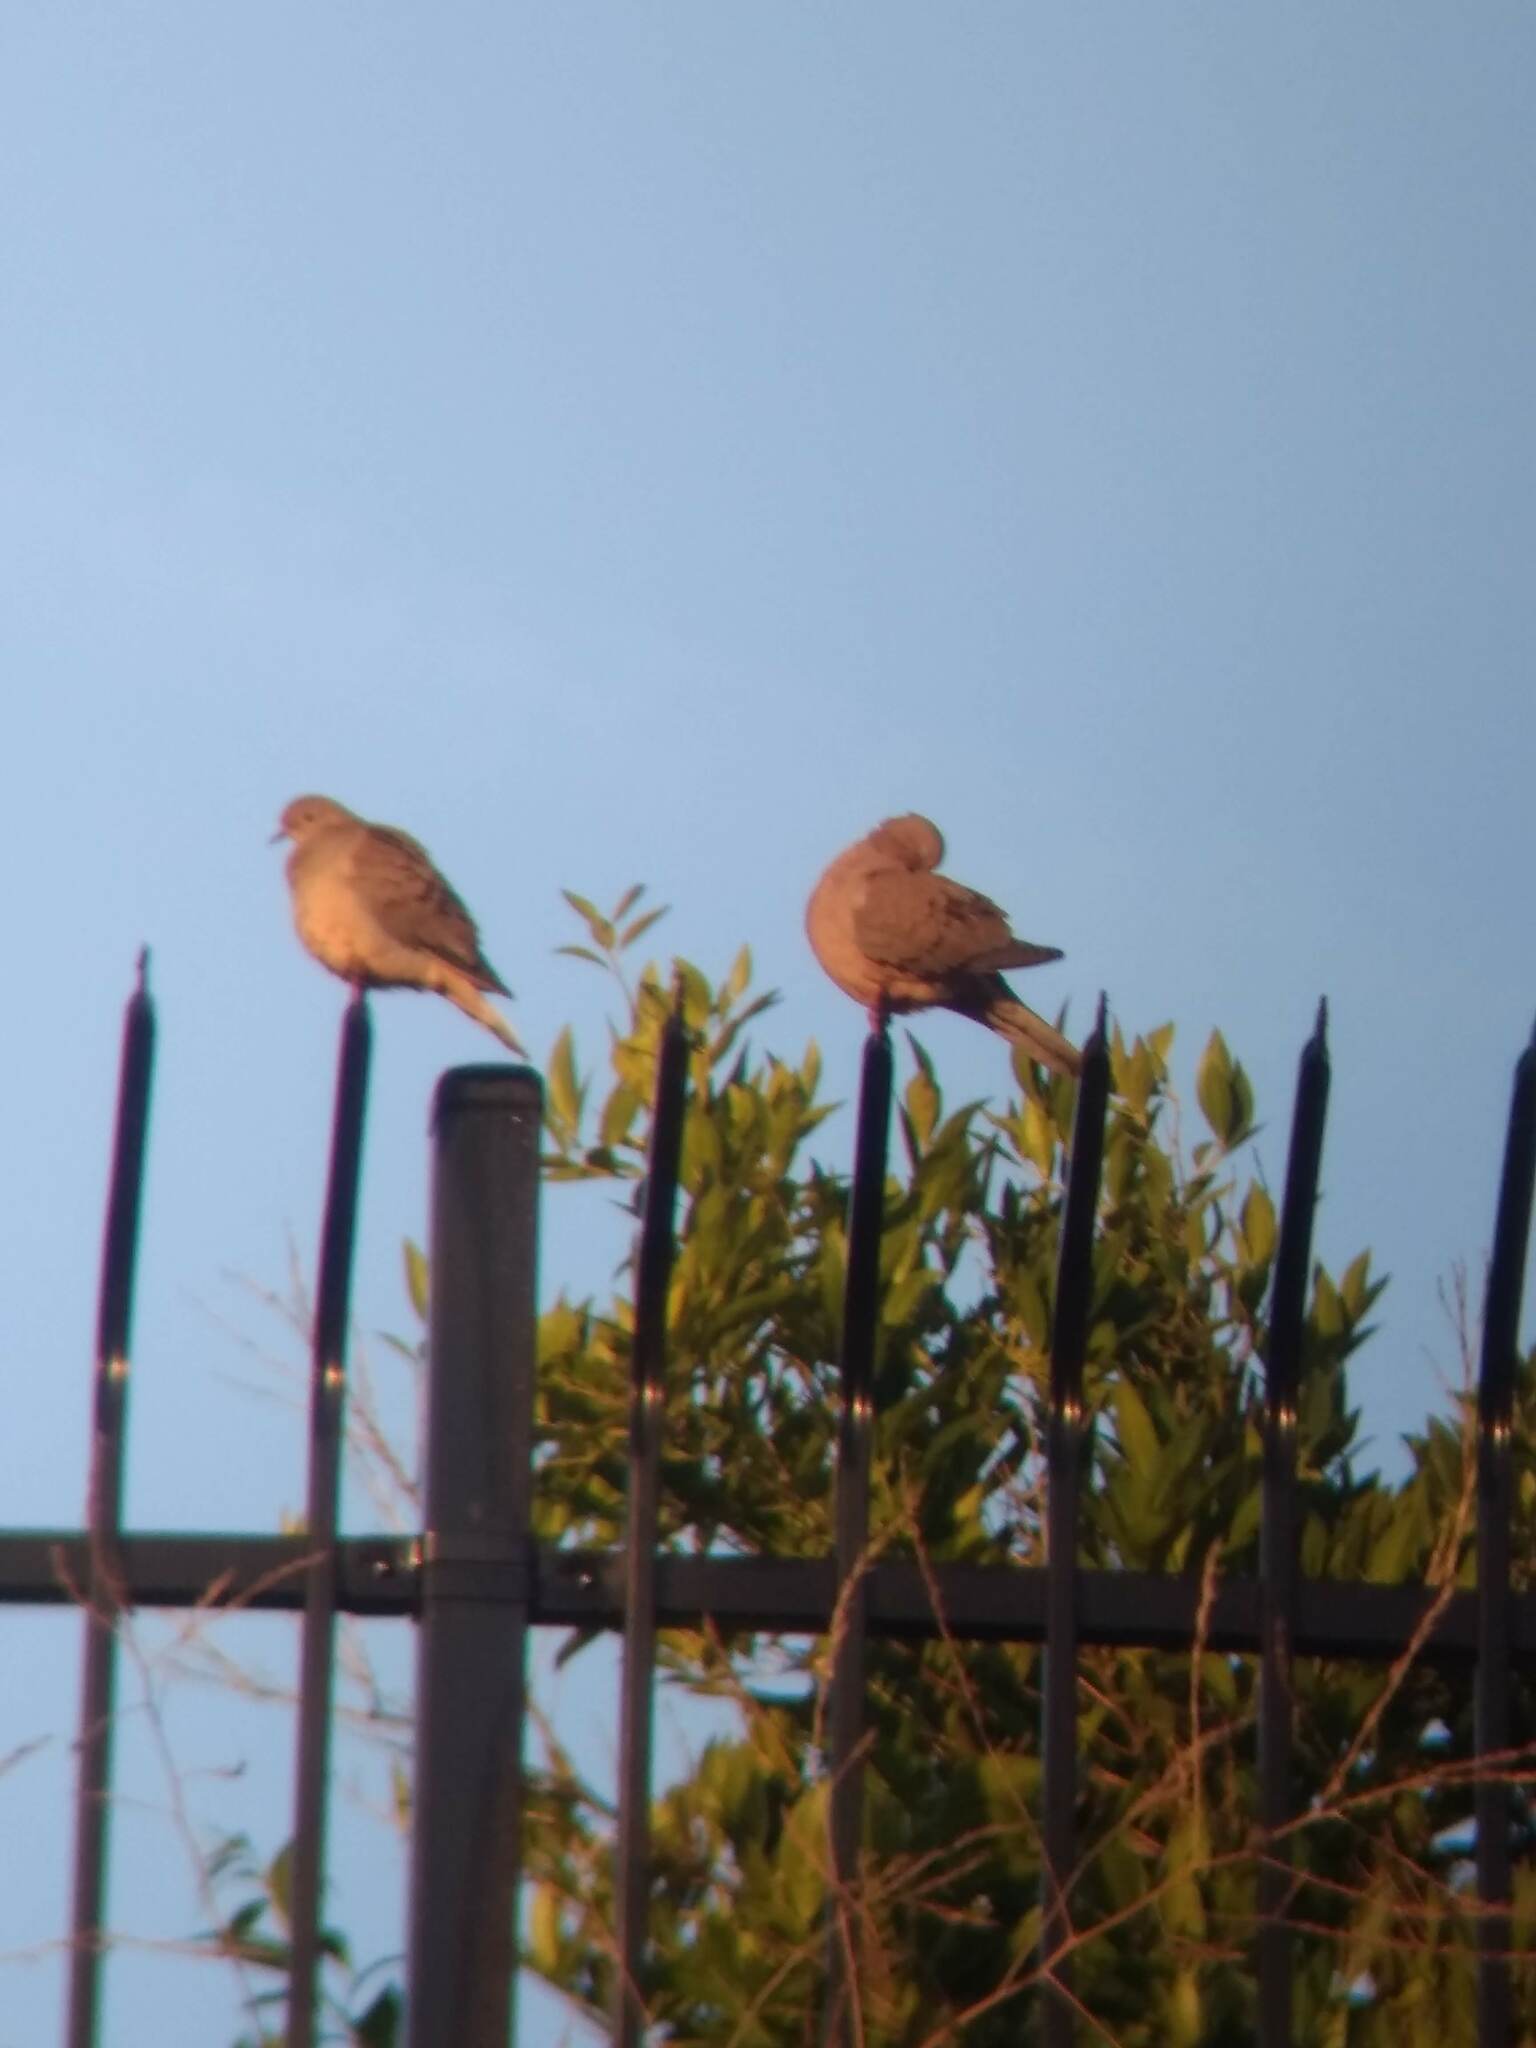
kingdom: Animalia
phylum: Chordata
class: Aves
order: Columbiformes
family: Columbidae
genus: Zenaida
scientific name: Zenaida macroura
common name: Mourning dove
